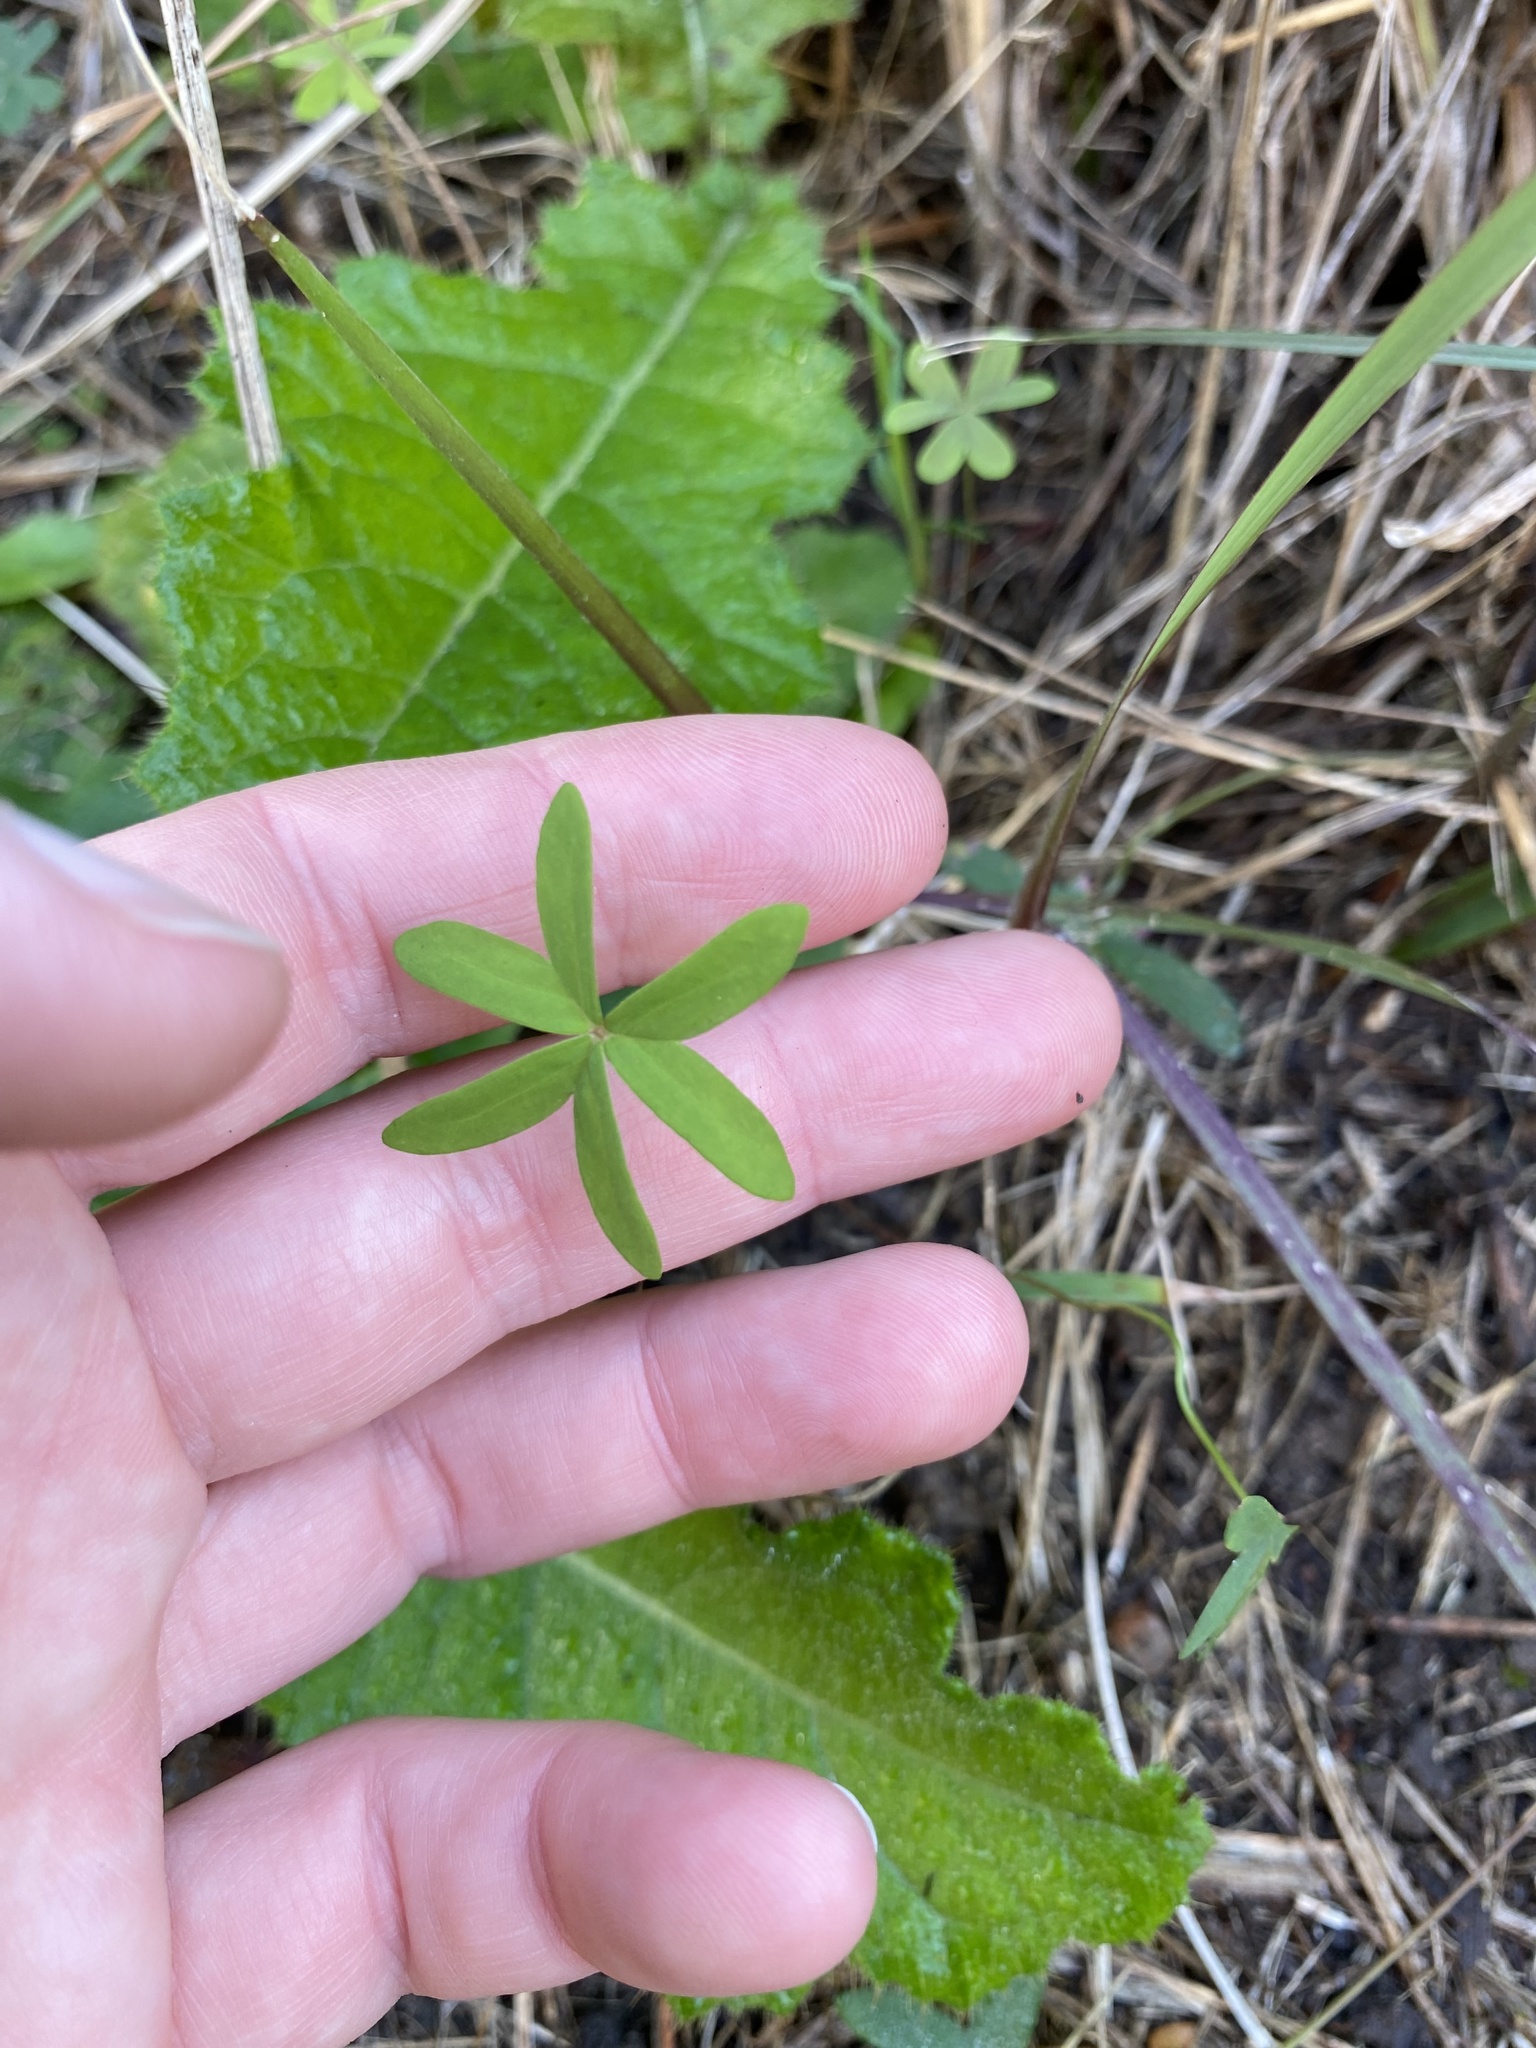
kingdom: Plantae
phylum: Tracheophyta
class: Magnoliopsida
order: Oxalidales
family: Oxalidaceae
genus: Oxalis
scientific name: Oxalis smithiana
